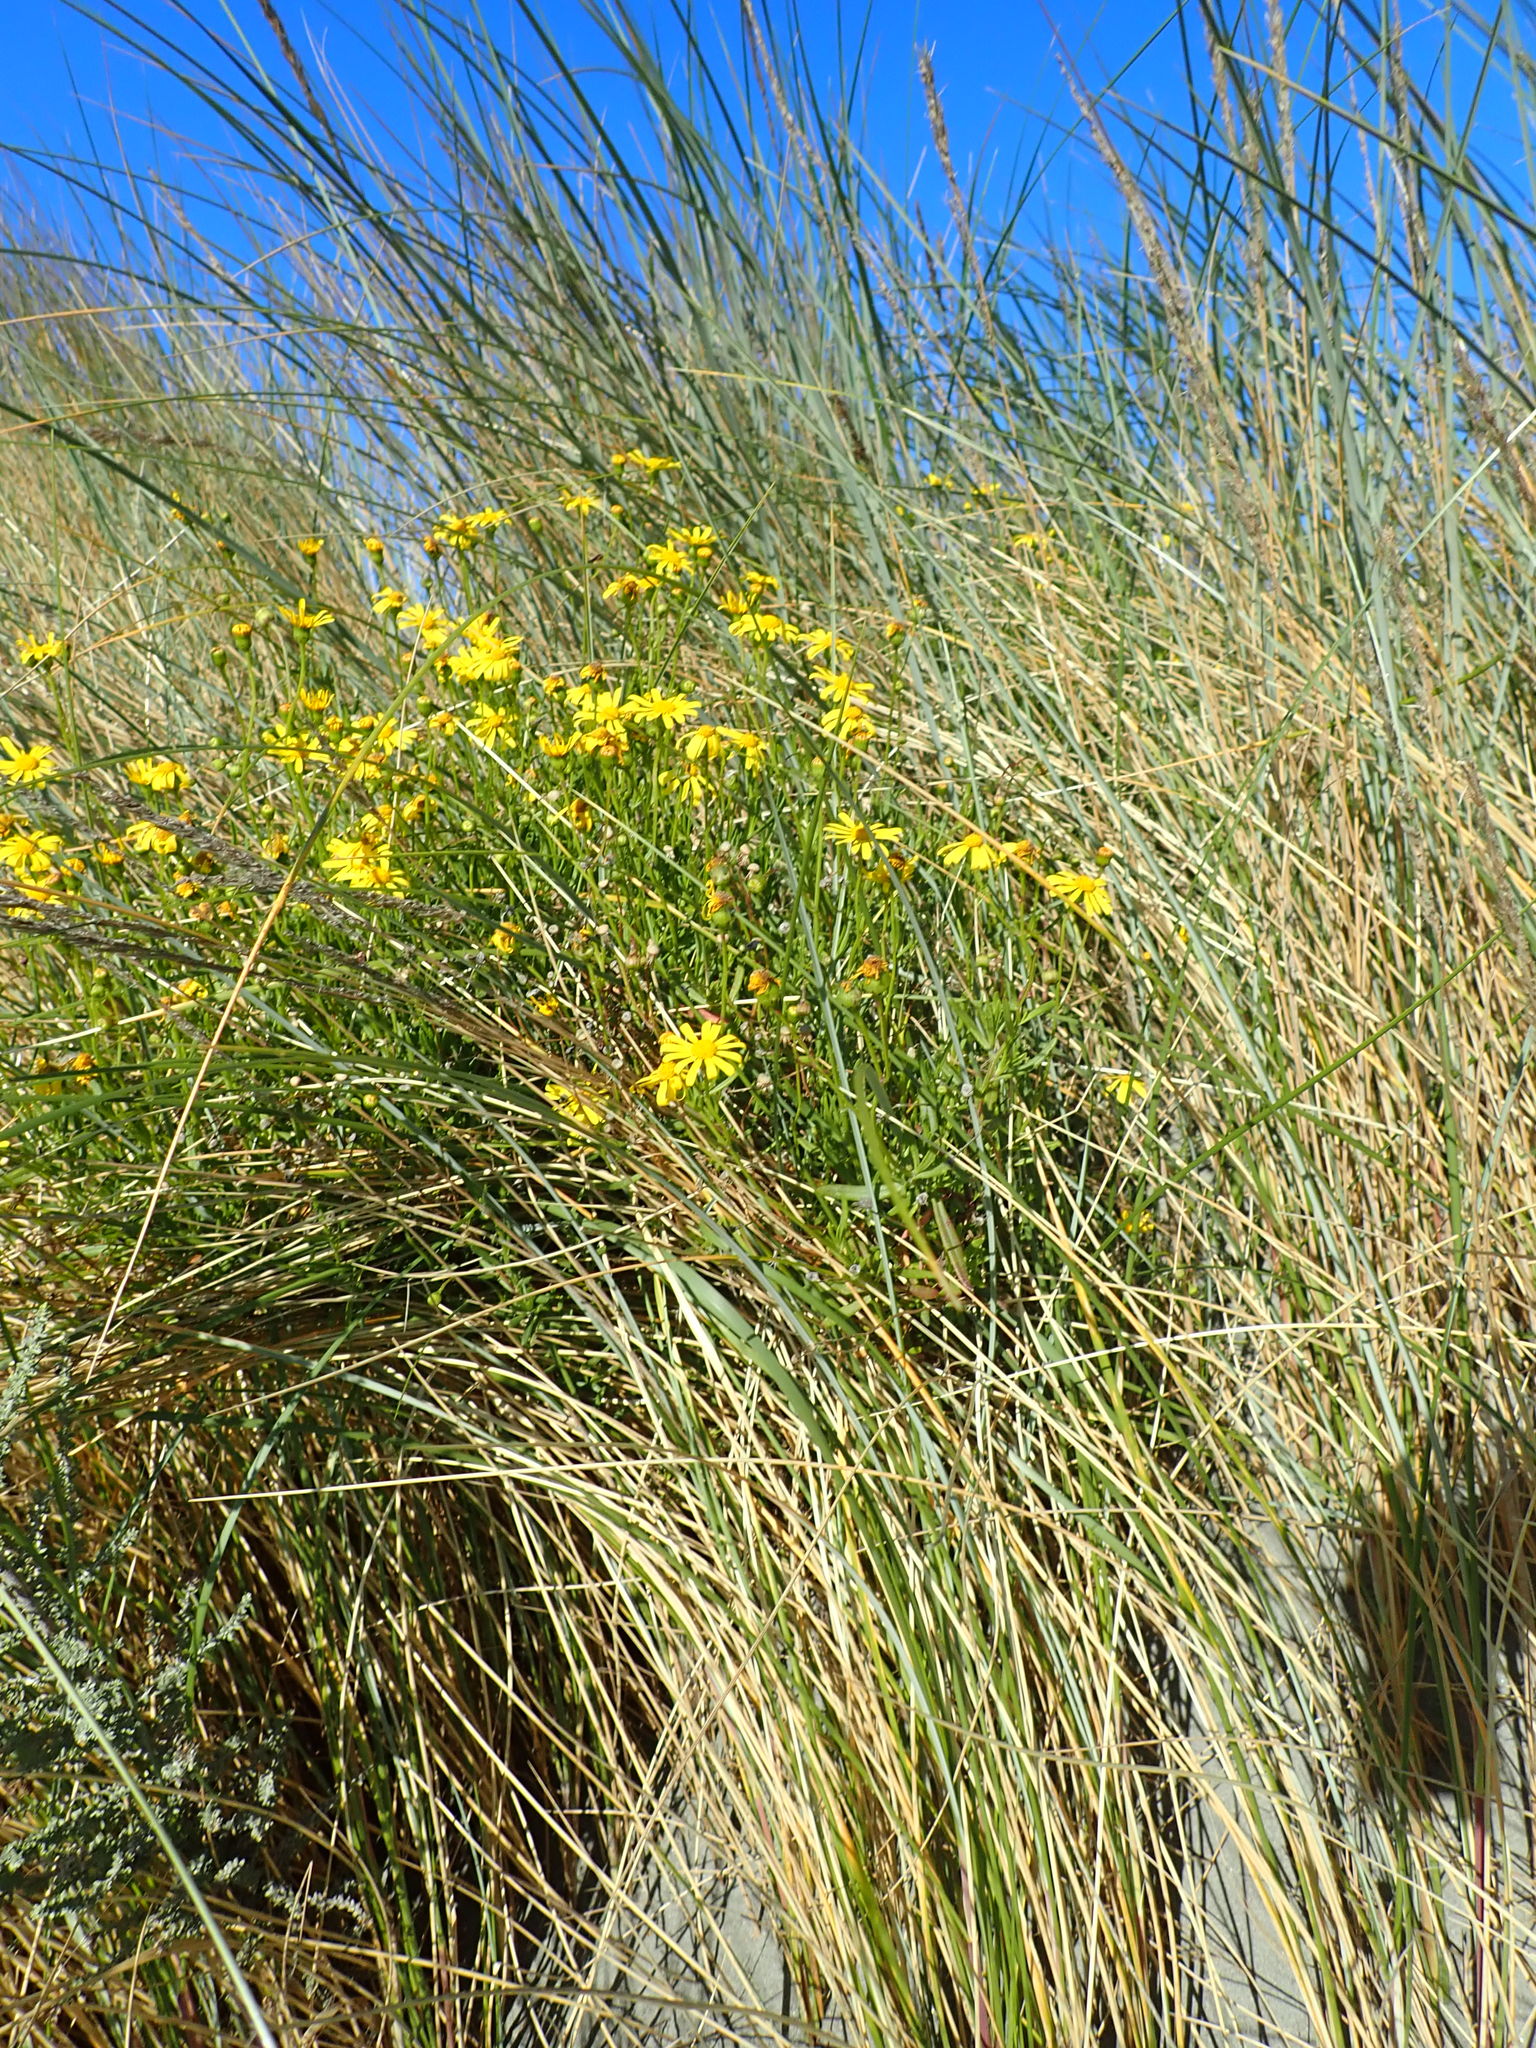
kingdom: Plantae
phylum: Tracheophyta
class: Magnoliopsida
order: Asterales
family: Asteraceae
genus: Senecio
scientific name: Senecio skirrhodon
